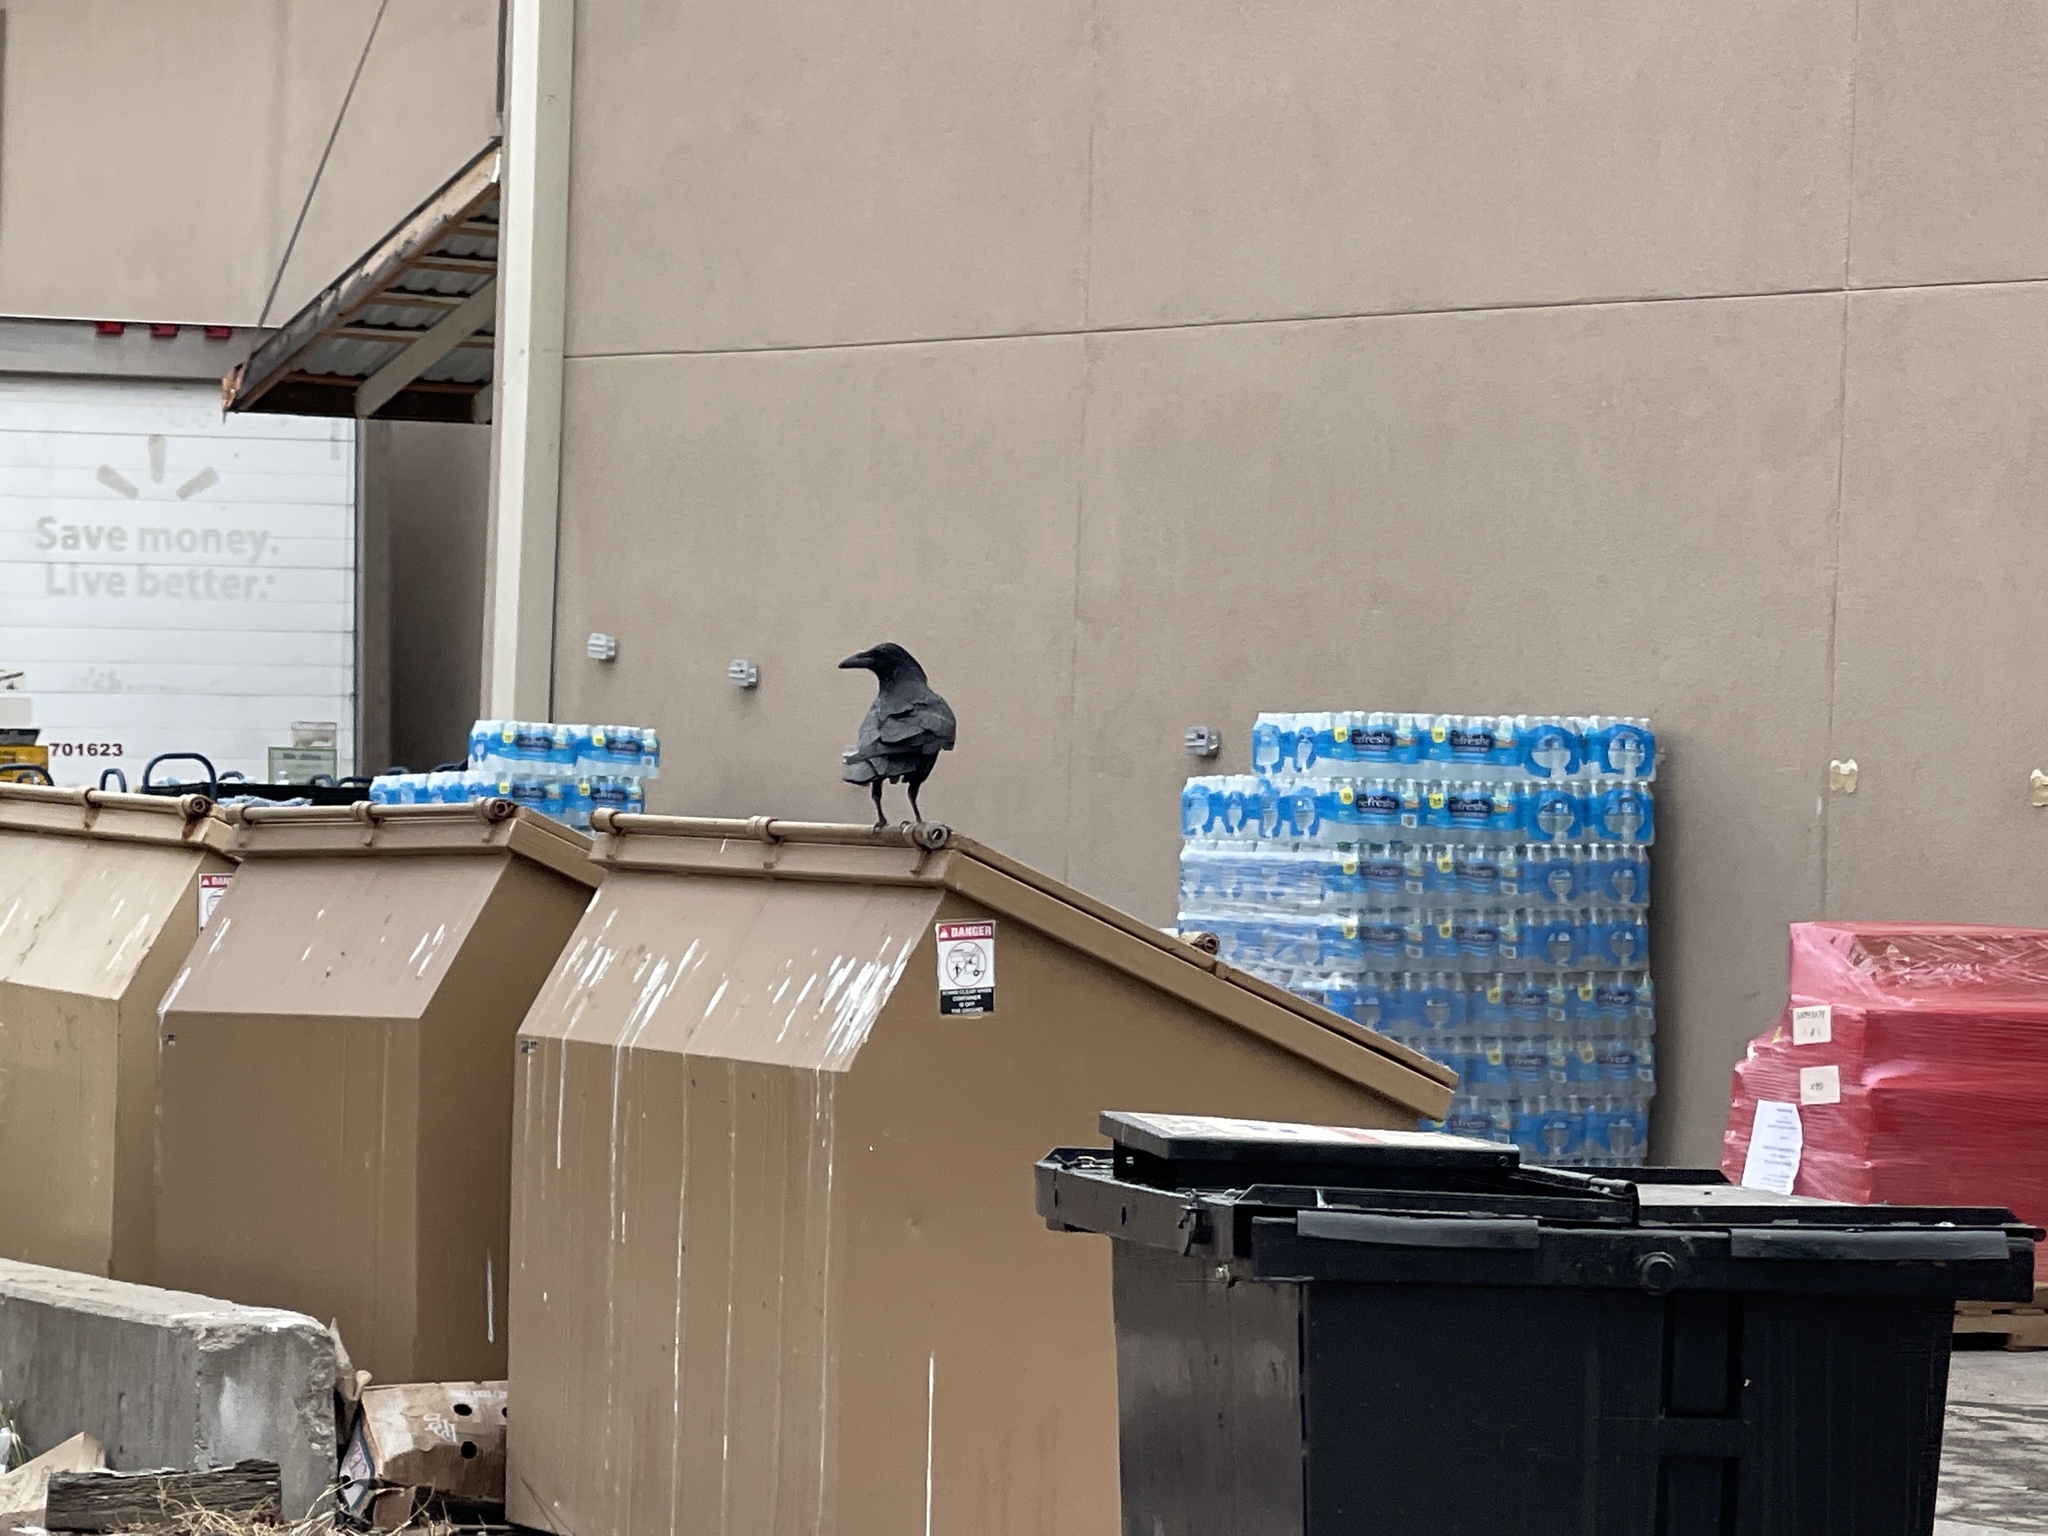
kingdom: Animalia
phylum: Chordata
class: Aves
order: Passeriformes
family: Corvidae
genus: Corvus
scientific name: Corvus corax
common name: Common raven
